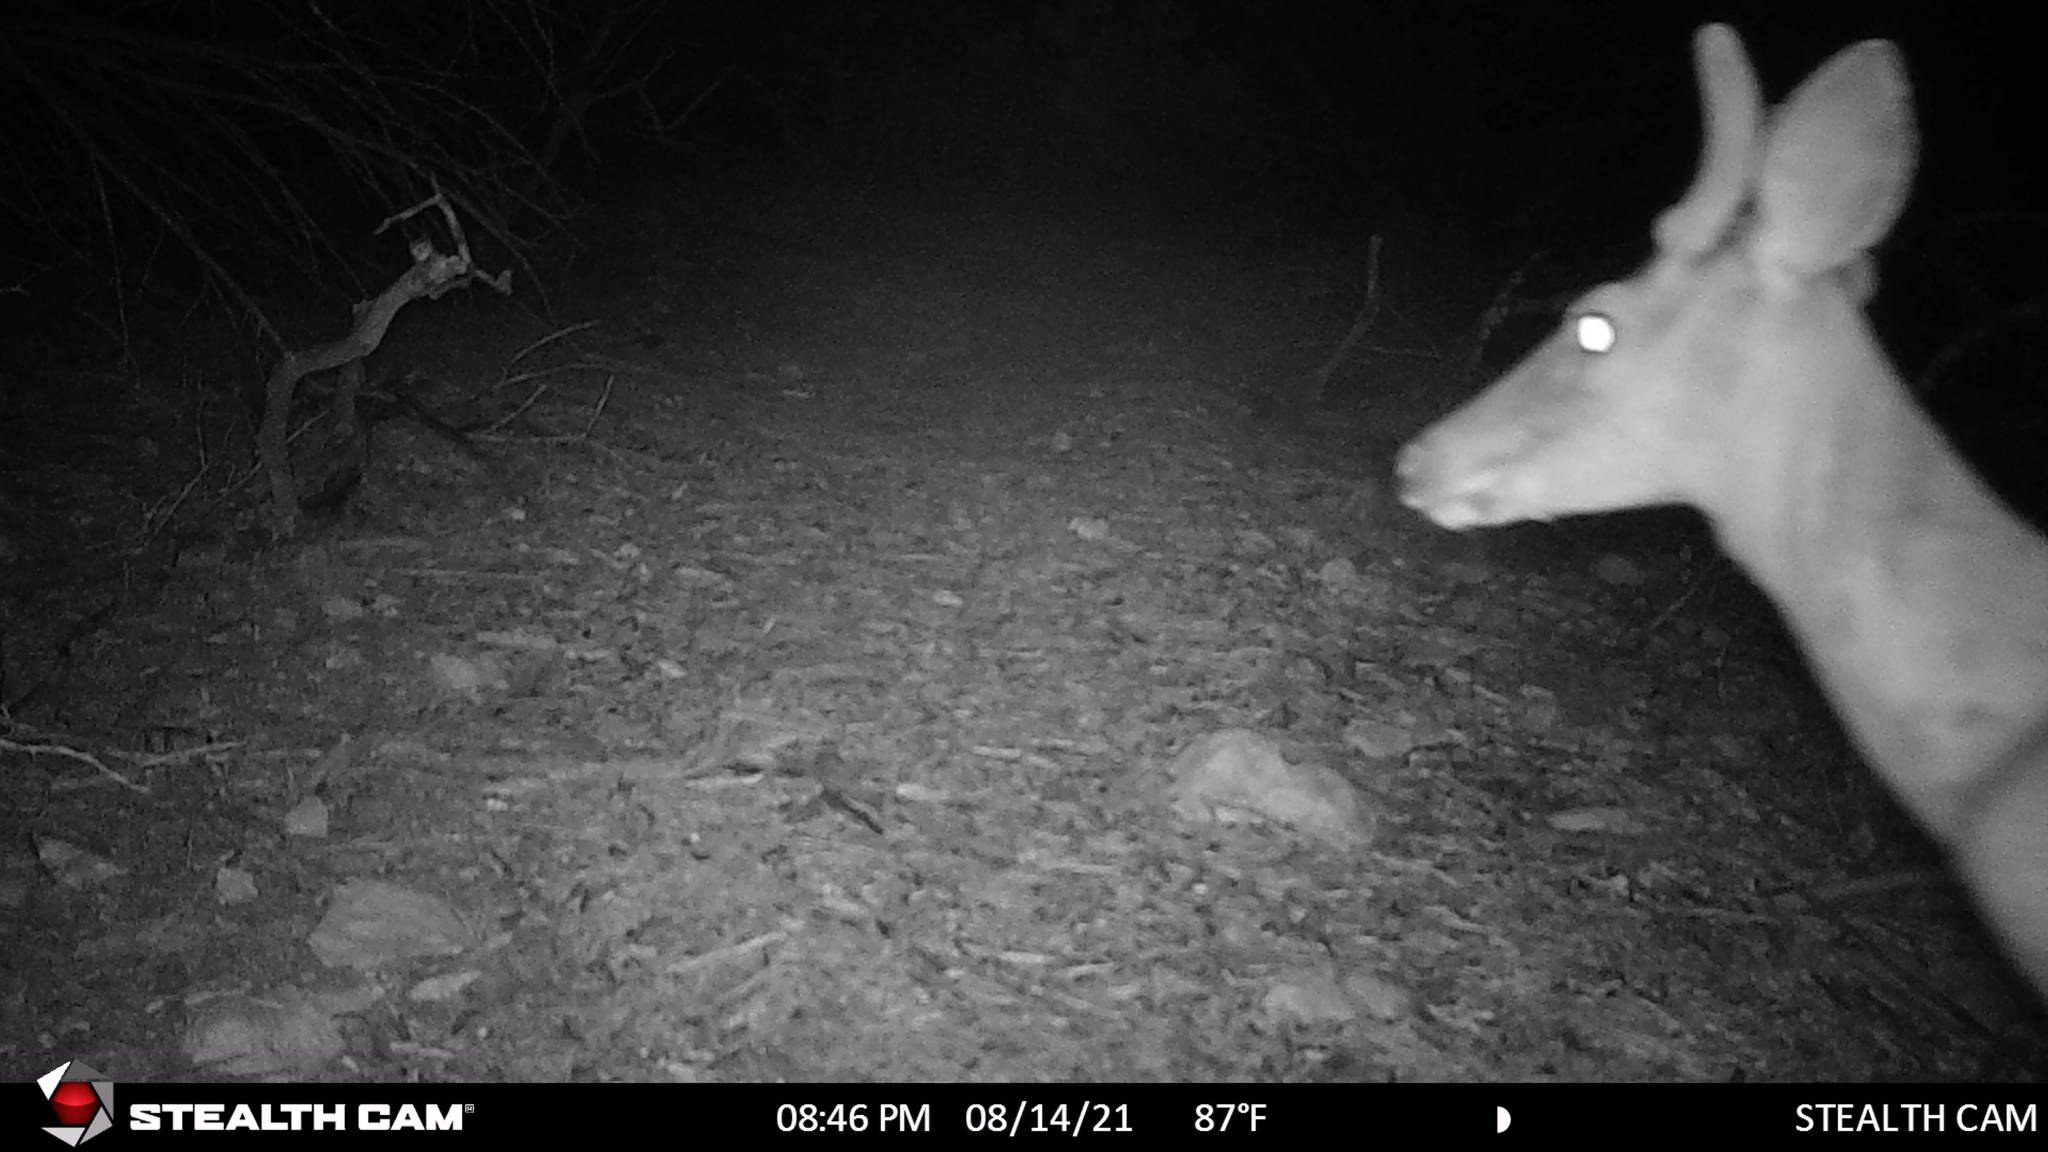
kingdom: Animalia
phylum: Chordata
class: Mammalia
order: Artiodactyla
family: Cervidae
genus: Odocoileus
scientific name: Odocoileus virginianus
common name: White-tailed deer
